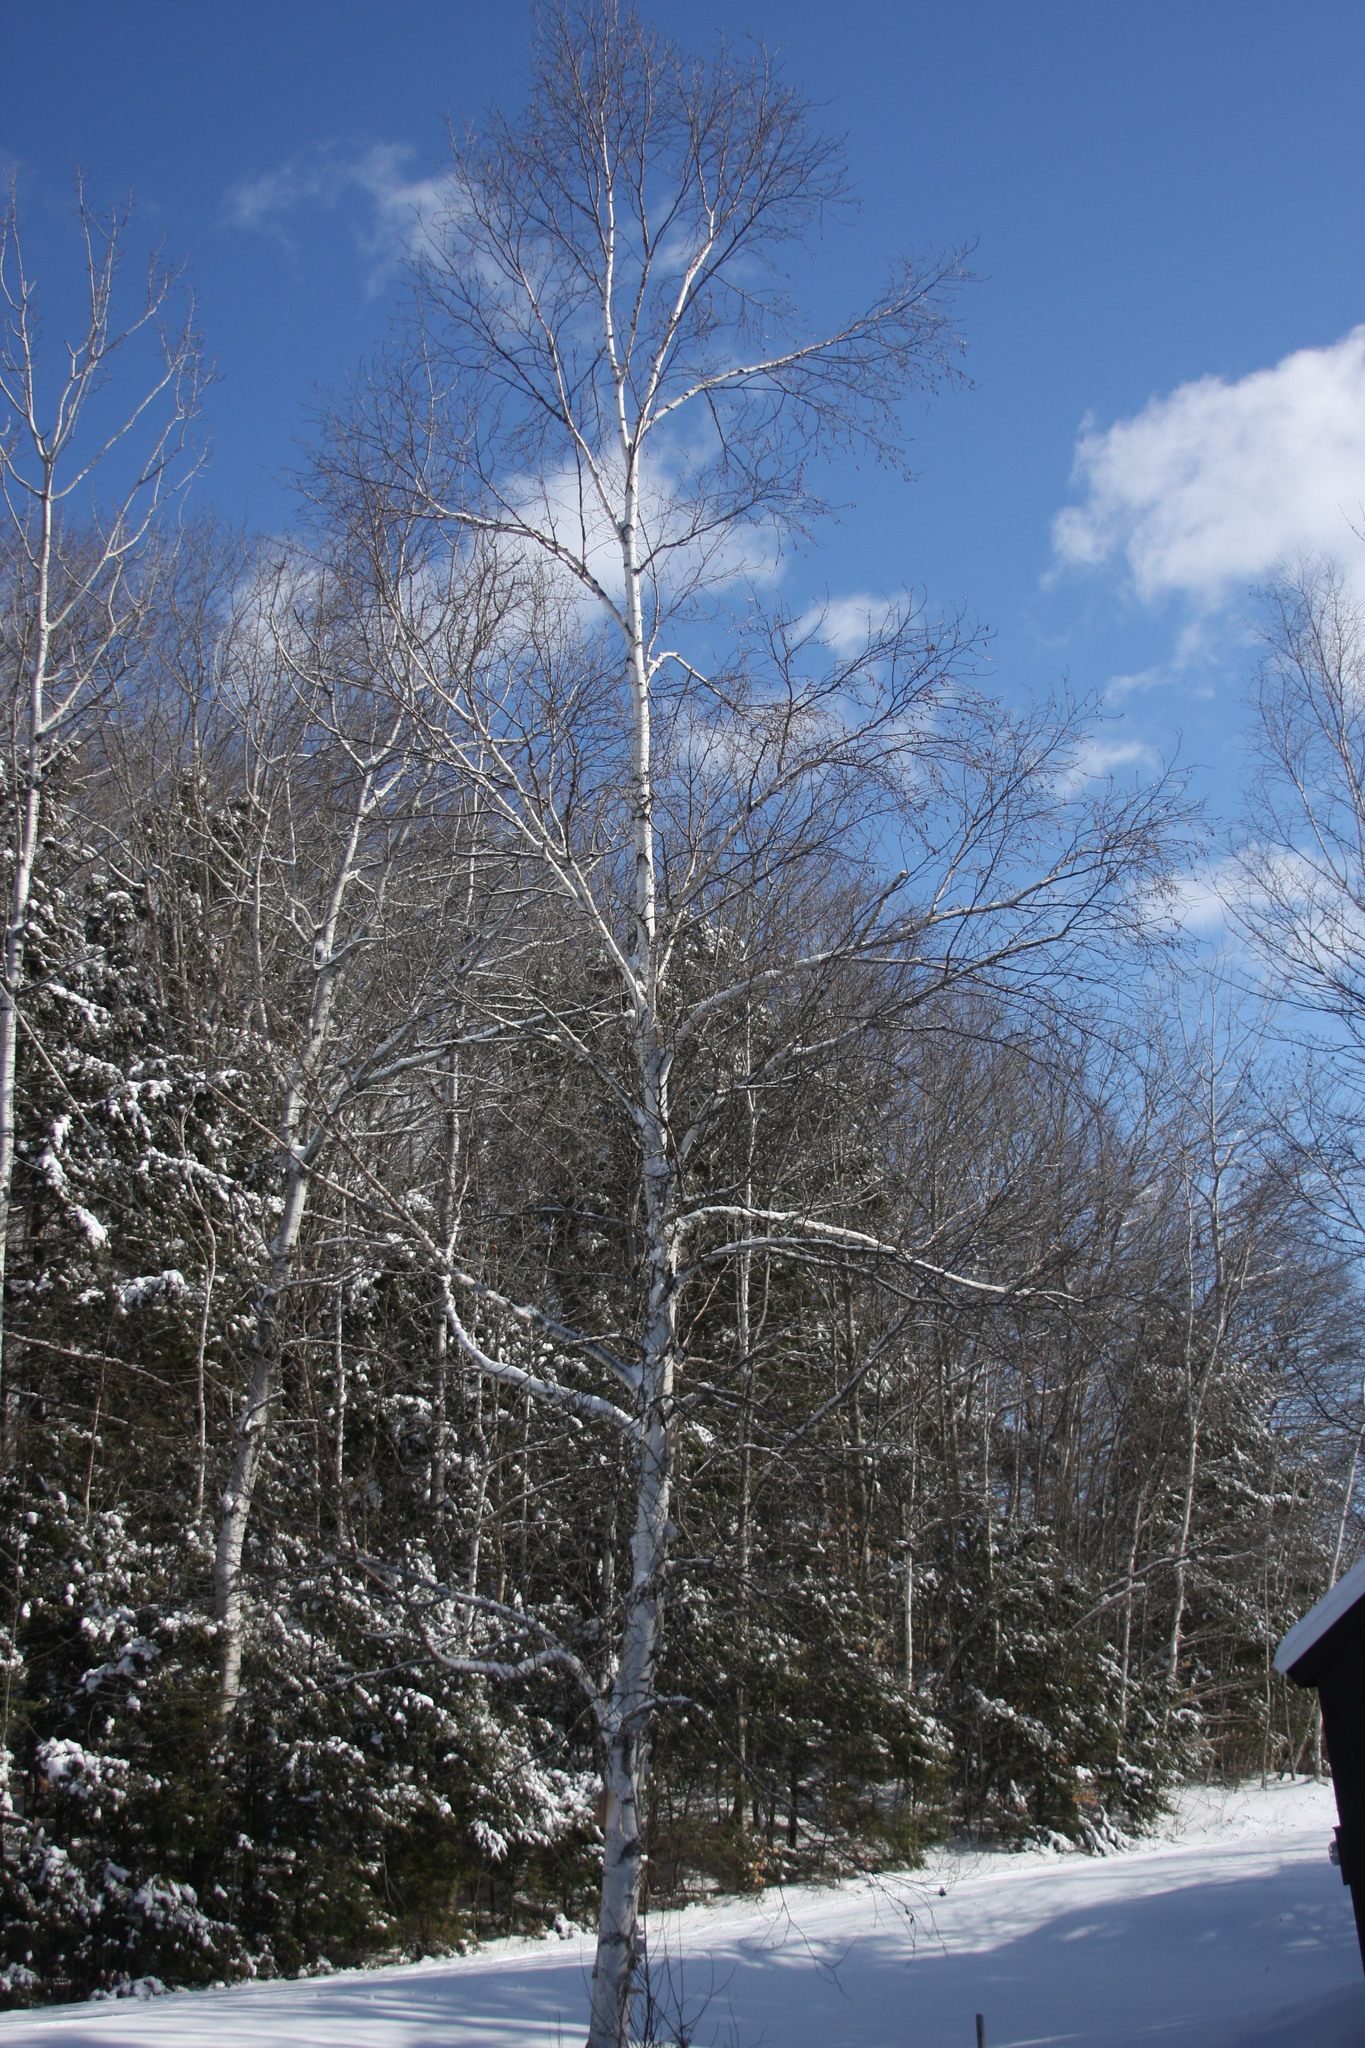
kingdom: Plantae
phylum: Tracheophyta
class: Magnoliopsida
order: Fagales
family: Betulaceae
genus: Betula
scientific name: Betula papyrifera
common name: Paper birch
